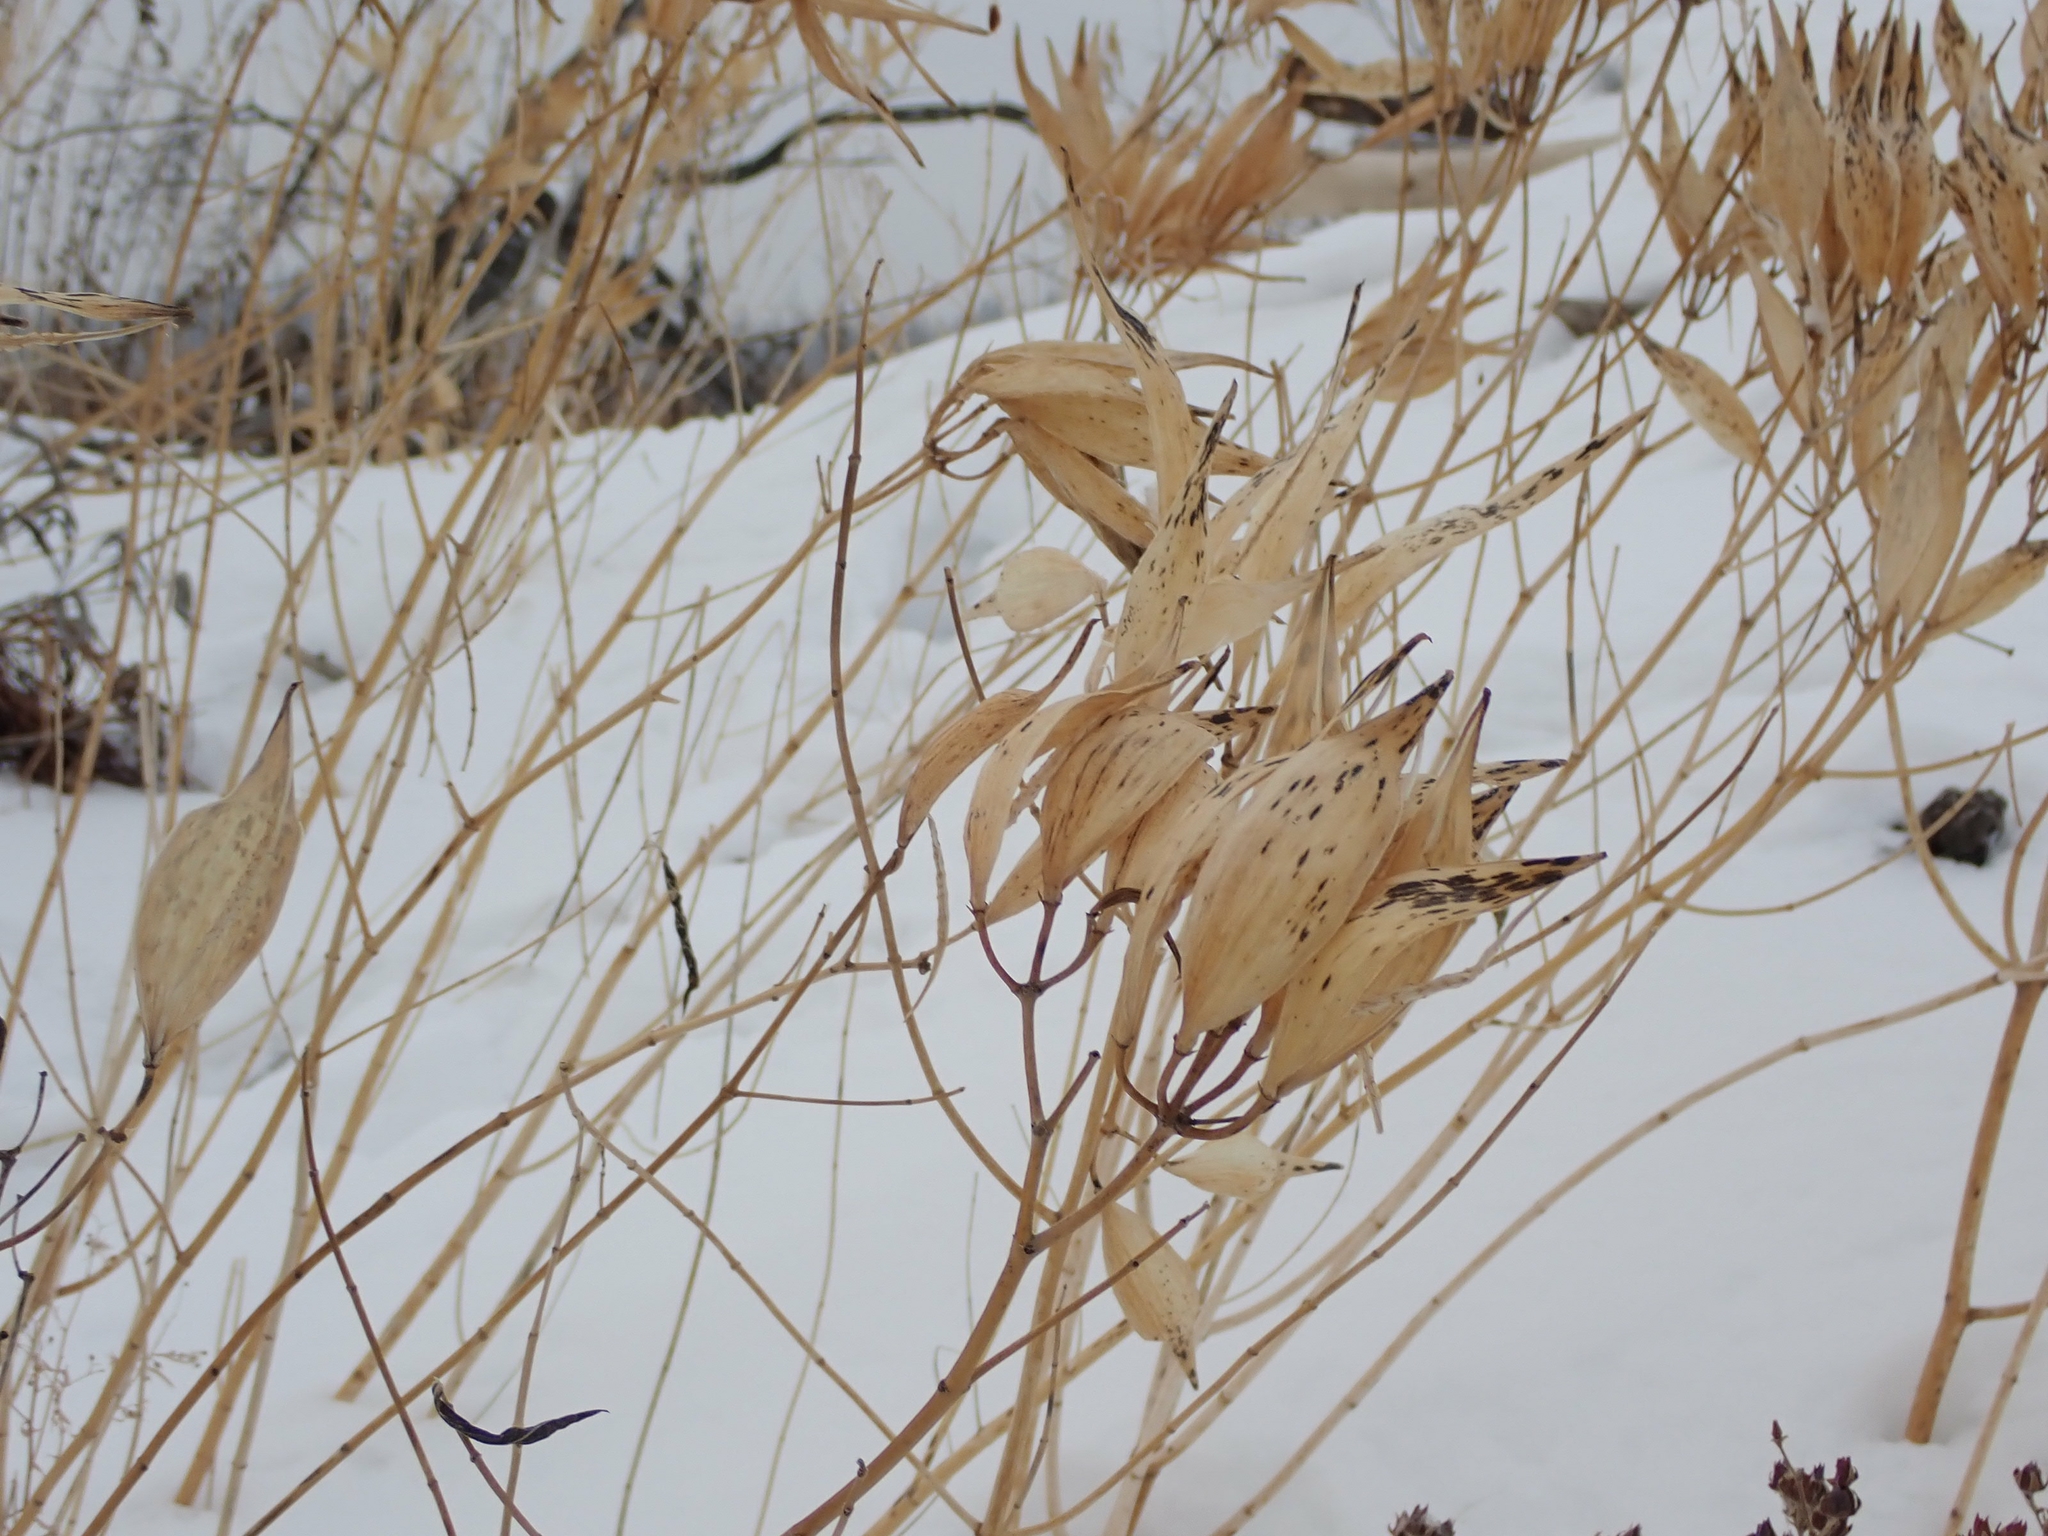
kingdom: Plantae
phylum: Tracheophyta
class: Magnoliopsida
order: Gentianales
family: Apocynaceae
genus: Asclepias
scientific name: Asclepias incarnata
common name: Swamp milkweed
